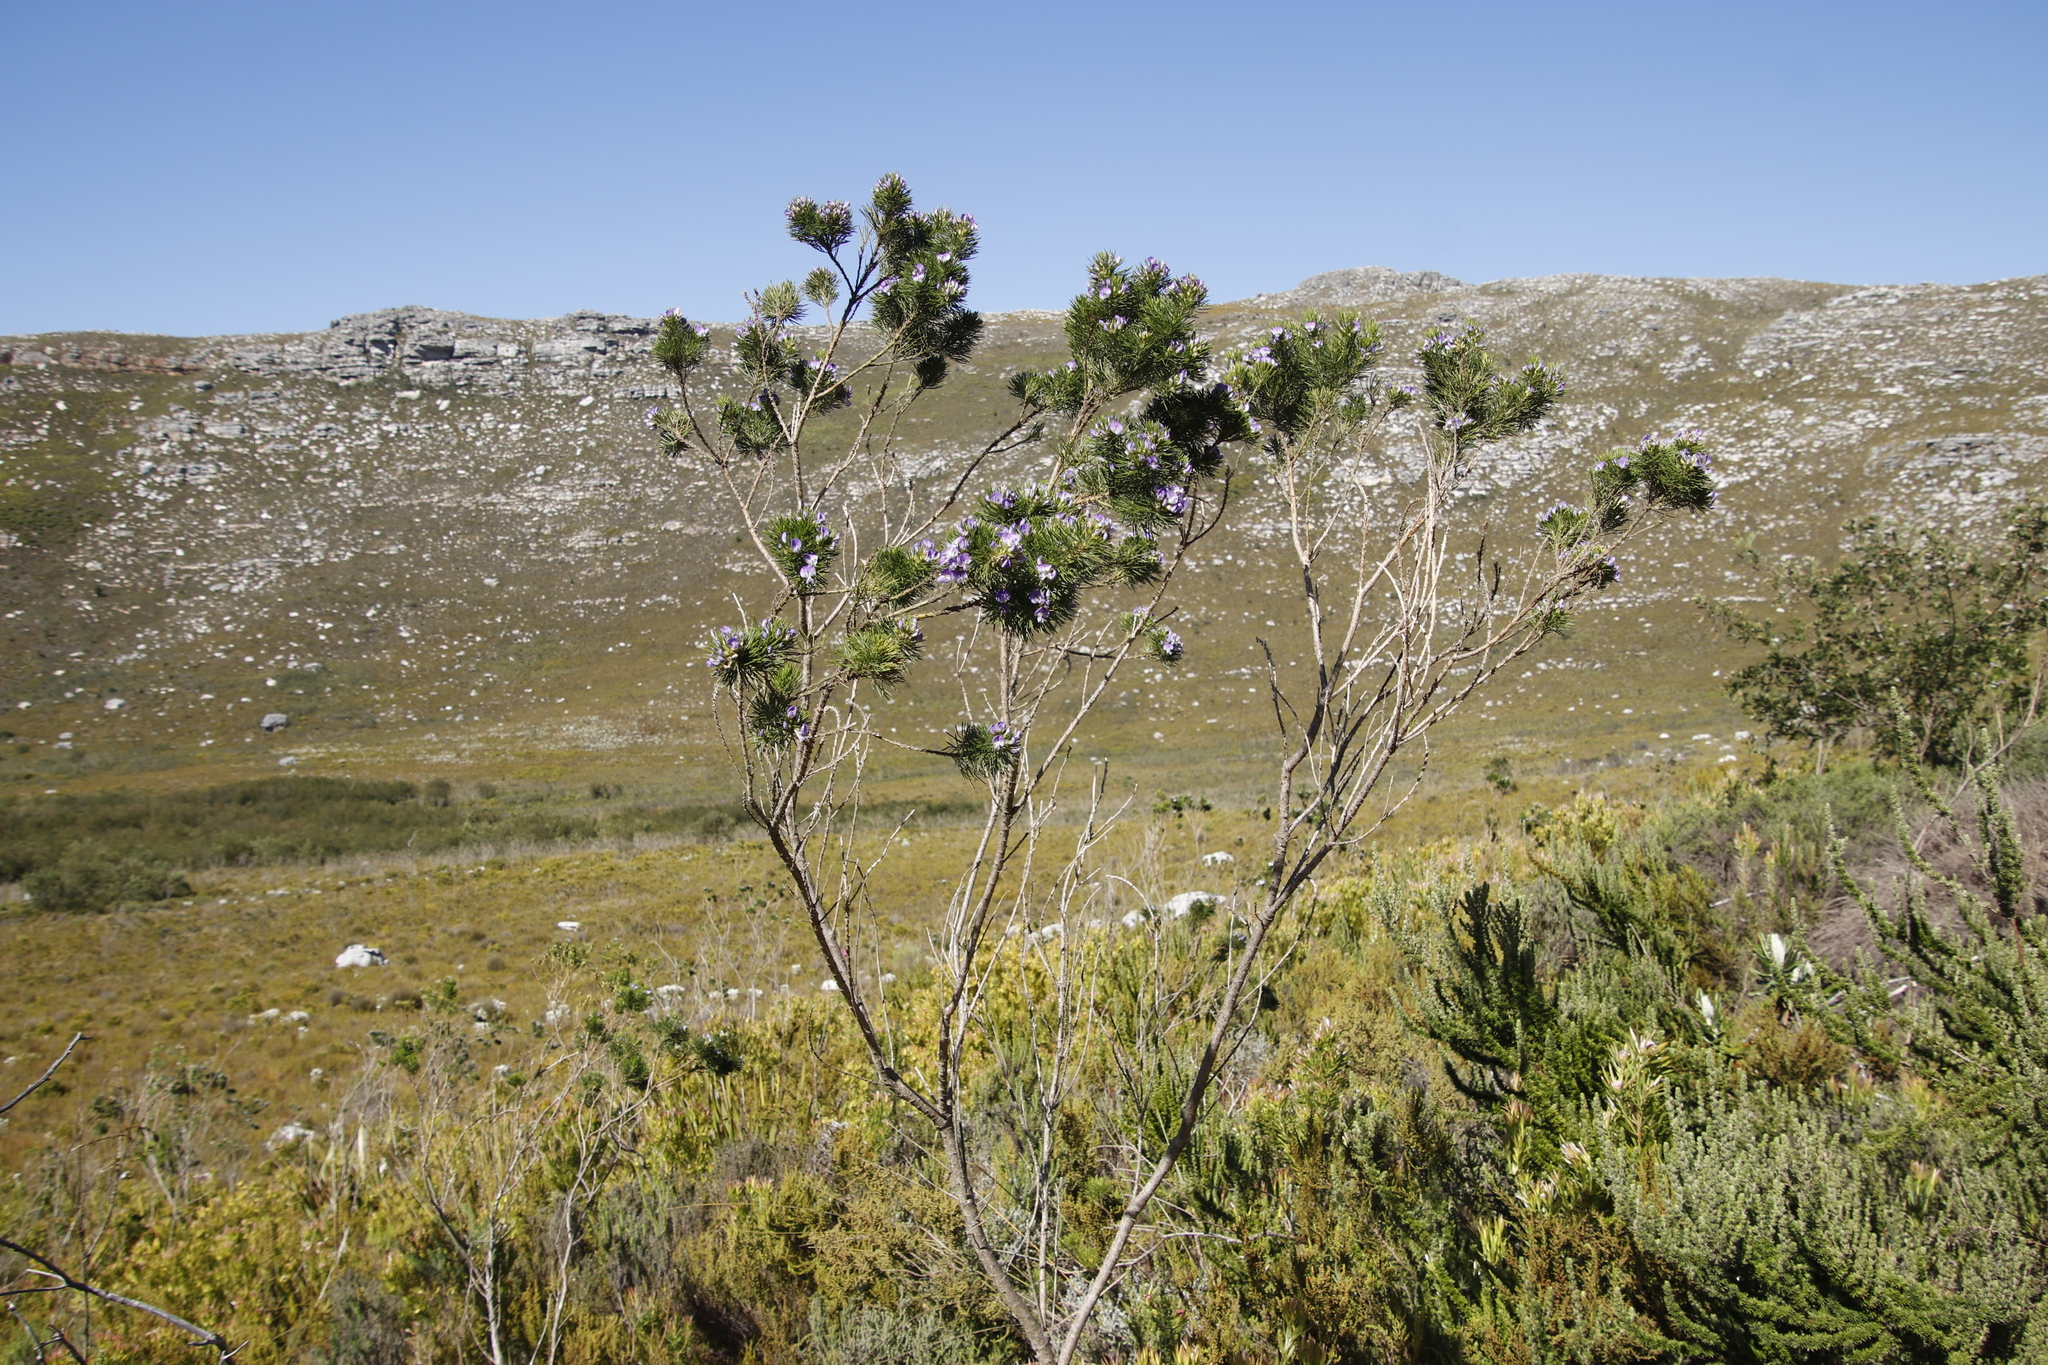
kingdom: Plantae
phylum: Tracheophyta
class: Magnoliopsida
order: Fabales
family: Fabaceae
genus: Psoralea
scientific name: Psoralea pinnata
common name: African scurfpea
